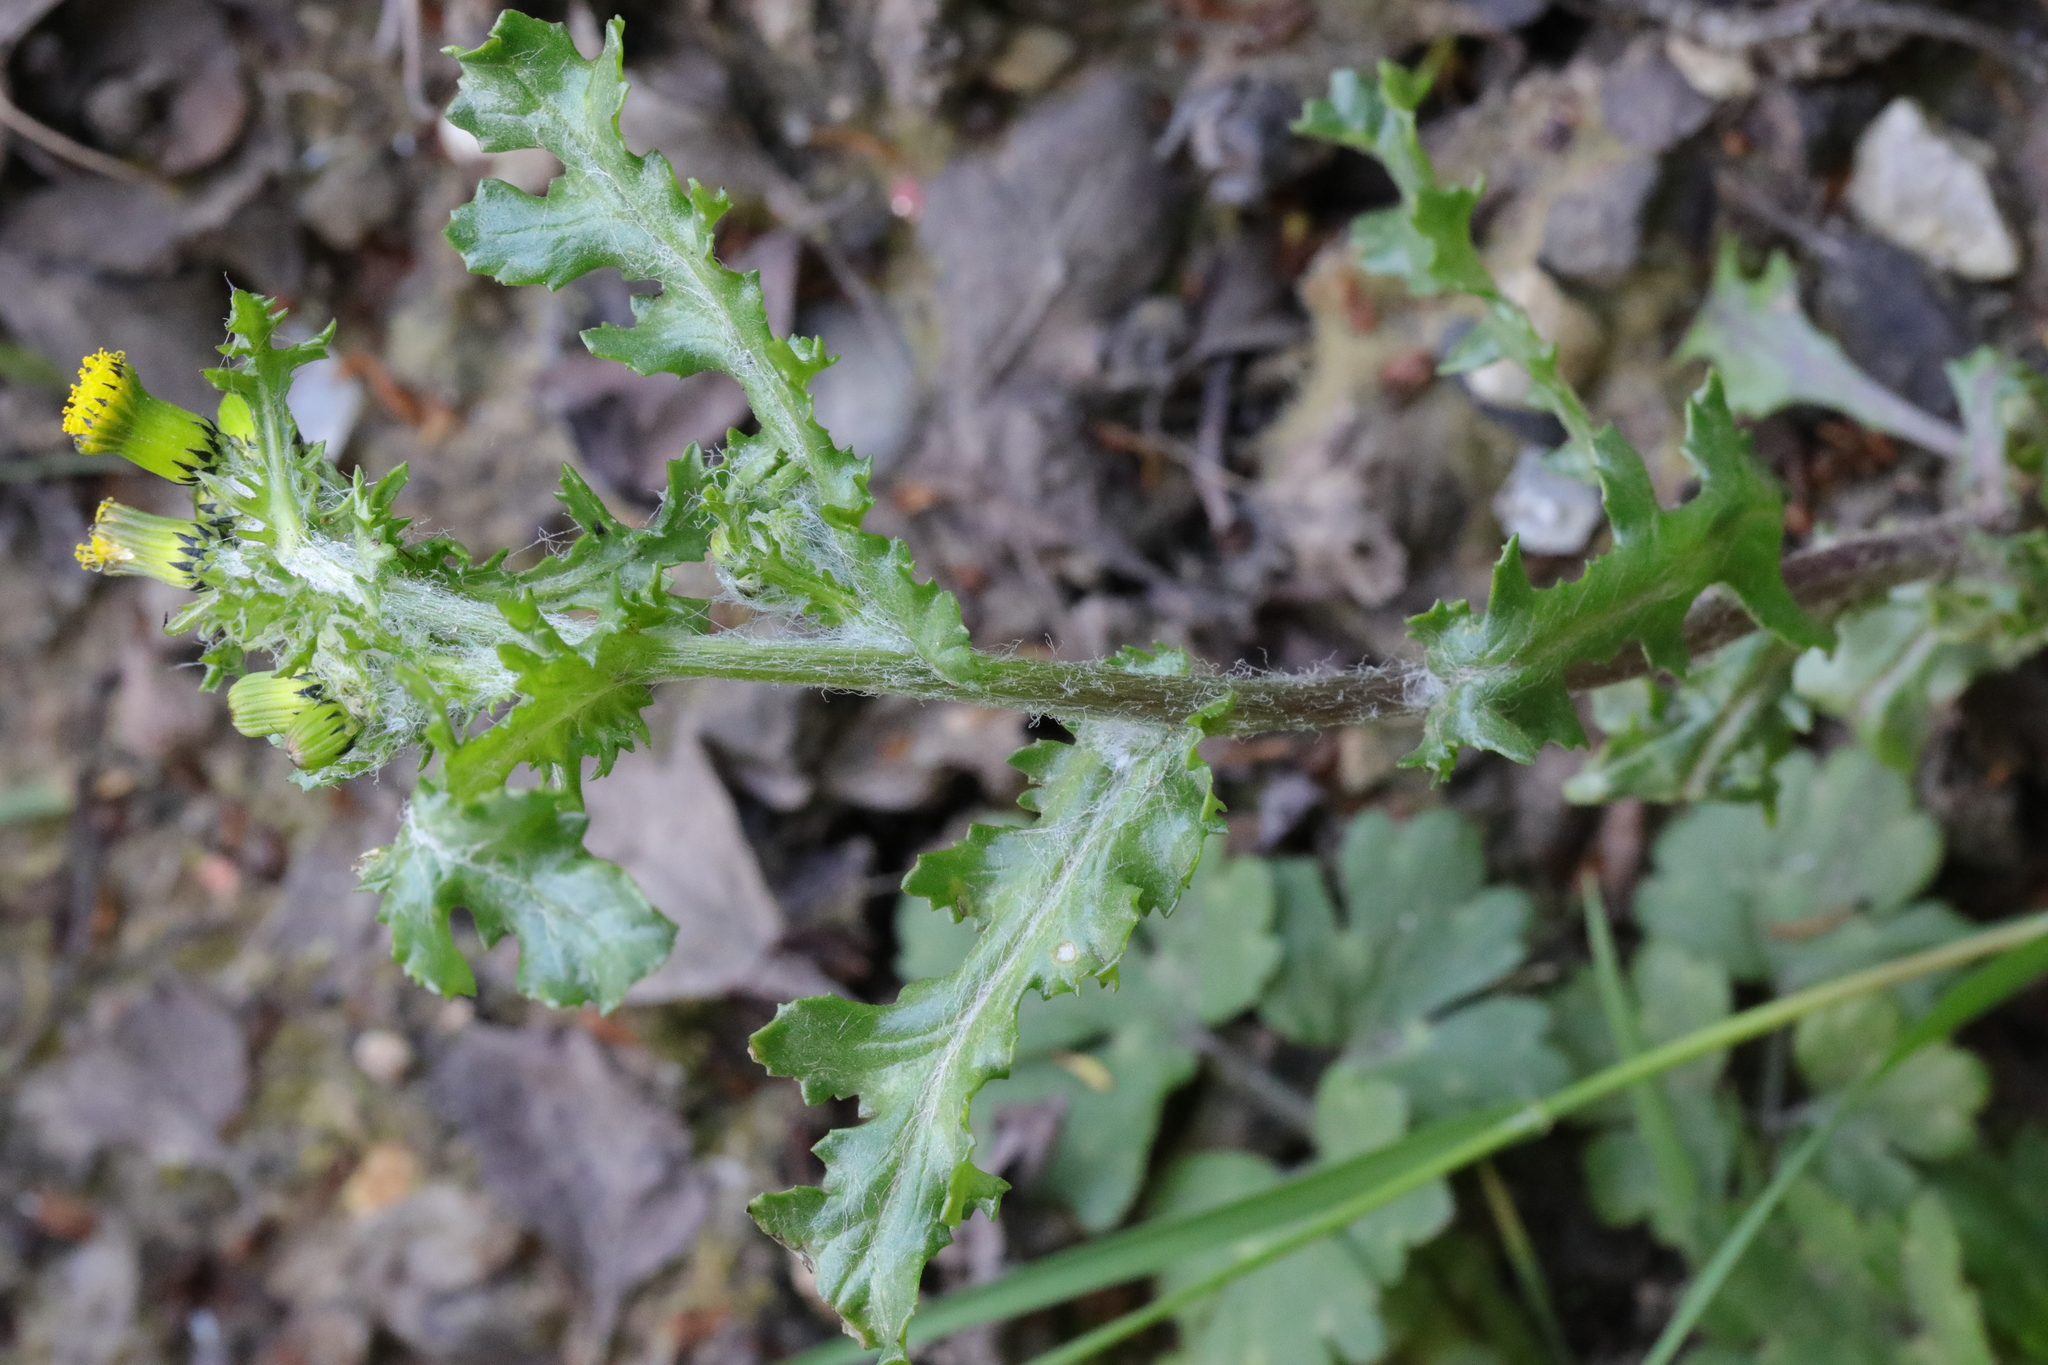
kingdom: Plantae
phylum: Tracheophyta
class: Magnoliopsida
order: Asterales
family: Asteraceae
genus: Senecio
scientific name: Senecio vulgaris
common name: Old-man-in-the-spring
